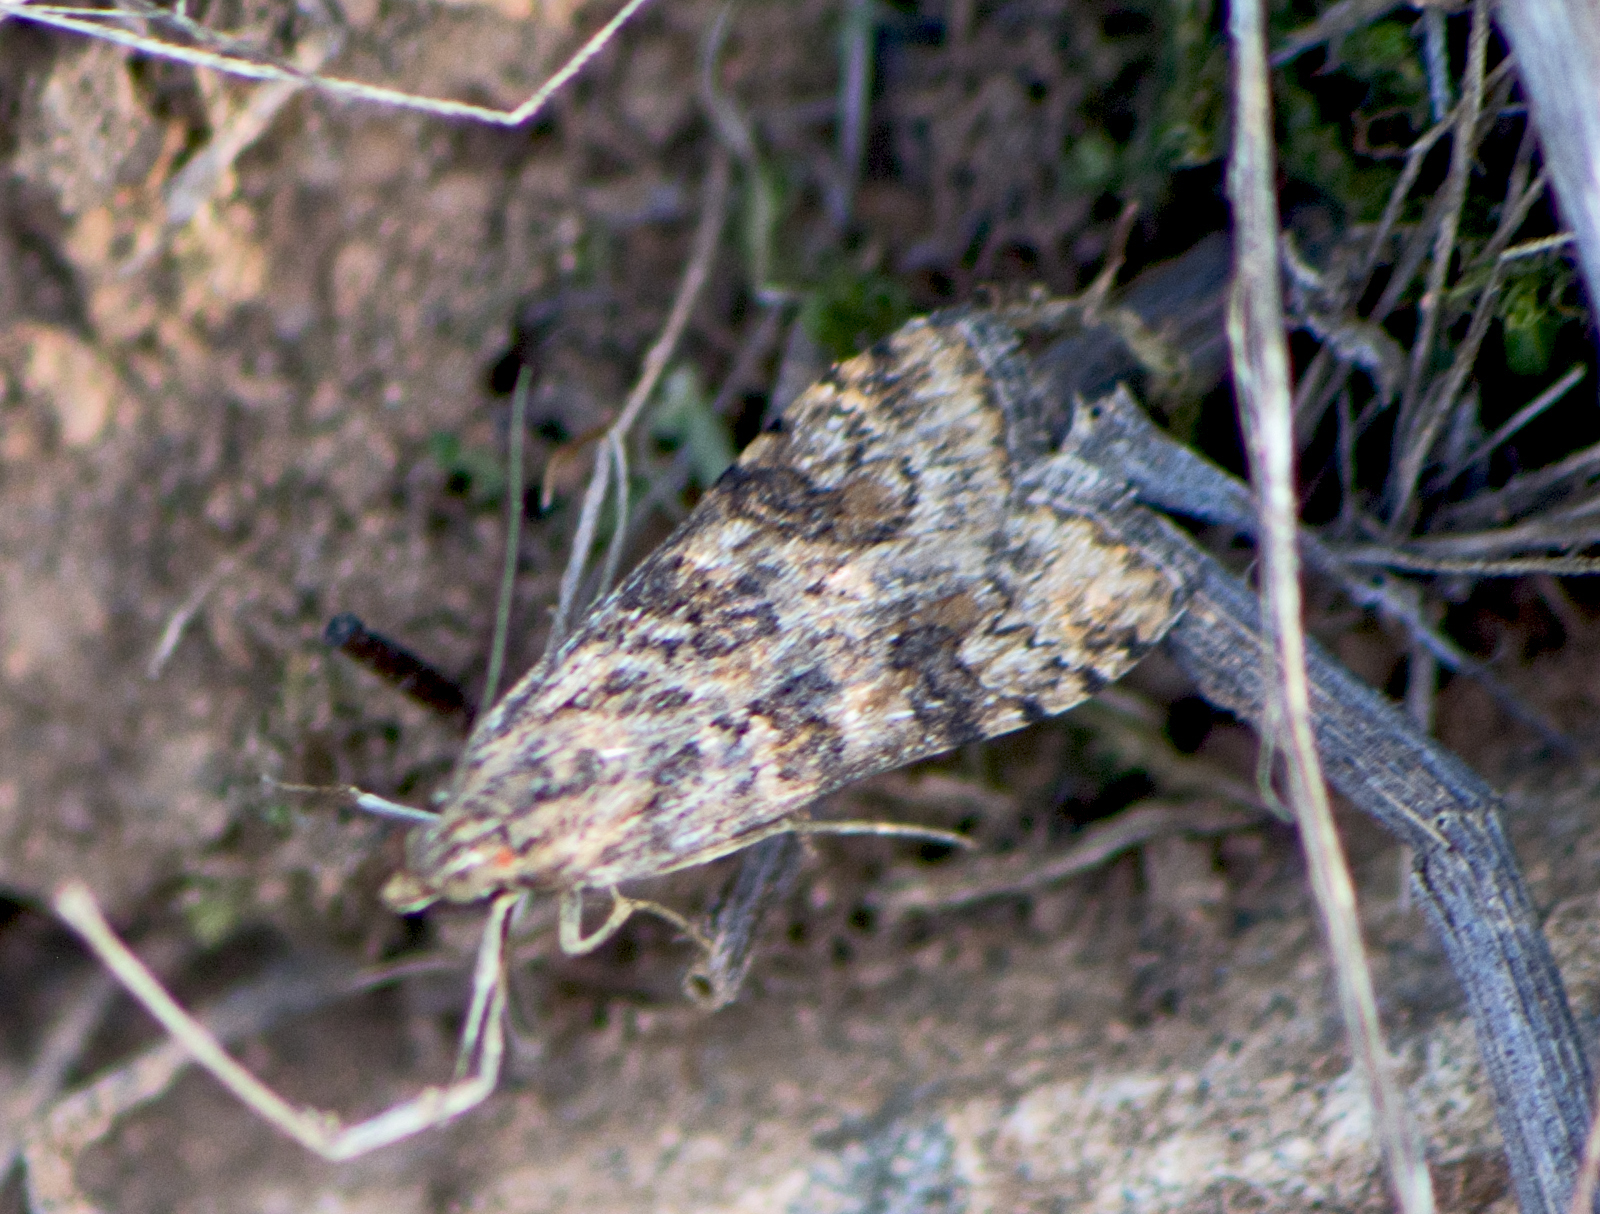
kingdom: Animalia
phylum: Arthropoda
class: Insecta
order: Lepidoptera
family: Crambidae
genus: Nomophila
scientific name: Nomophila noctuella
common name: Rush veneer
